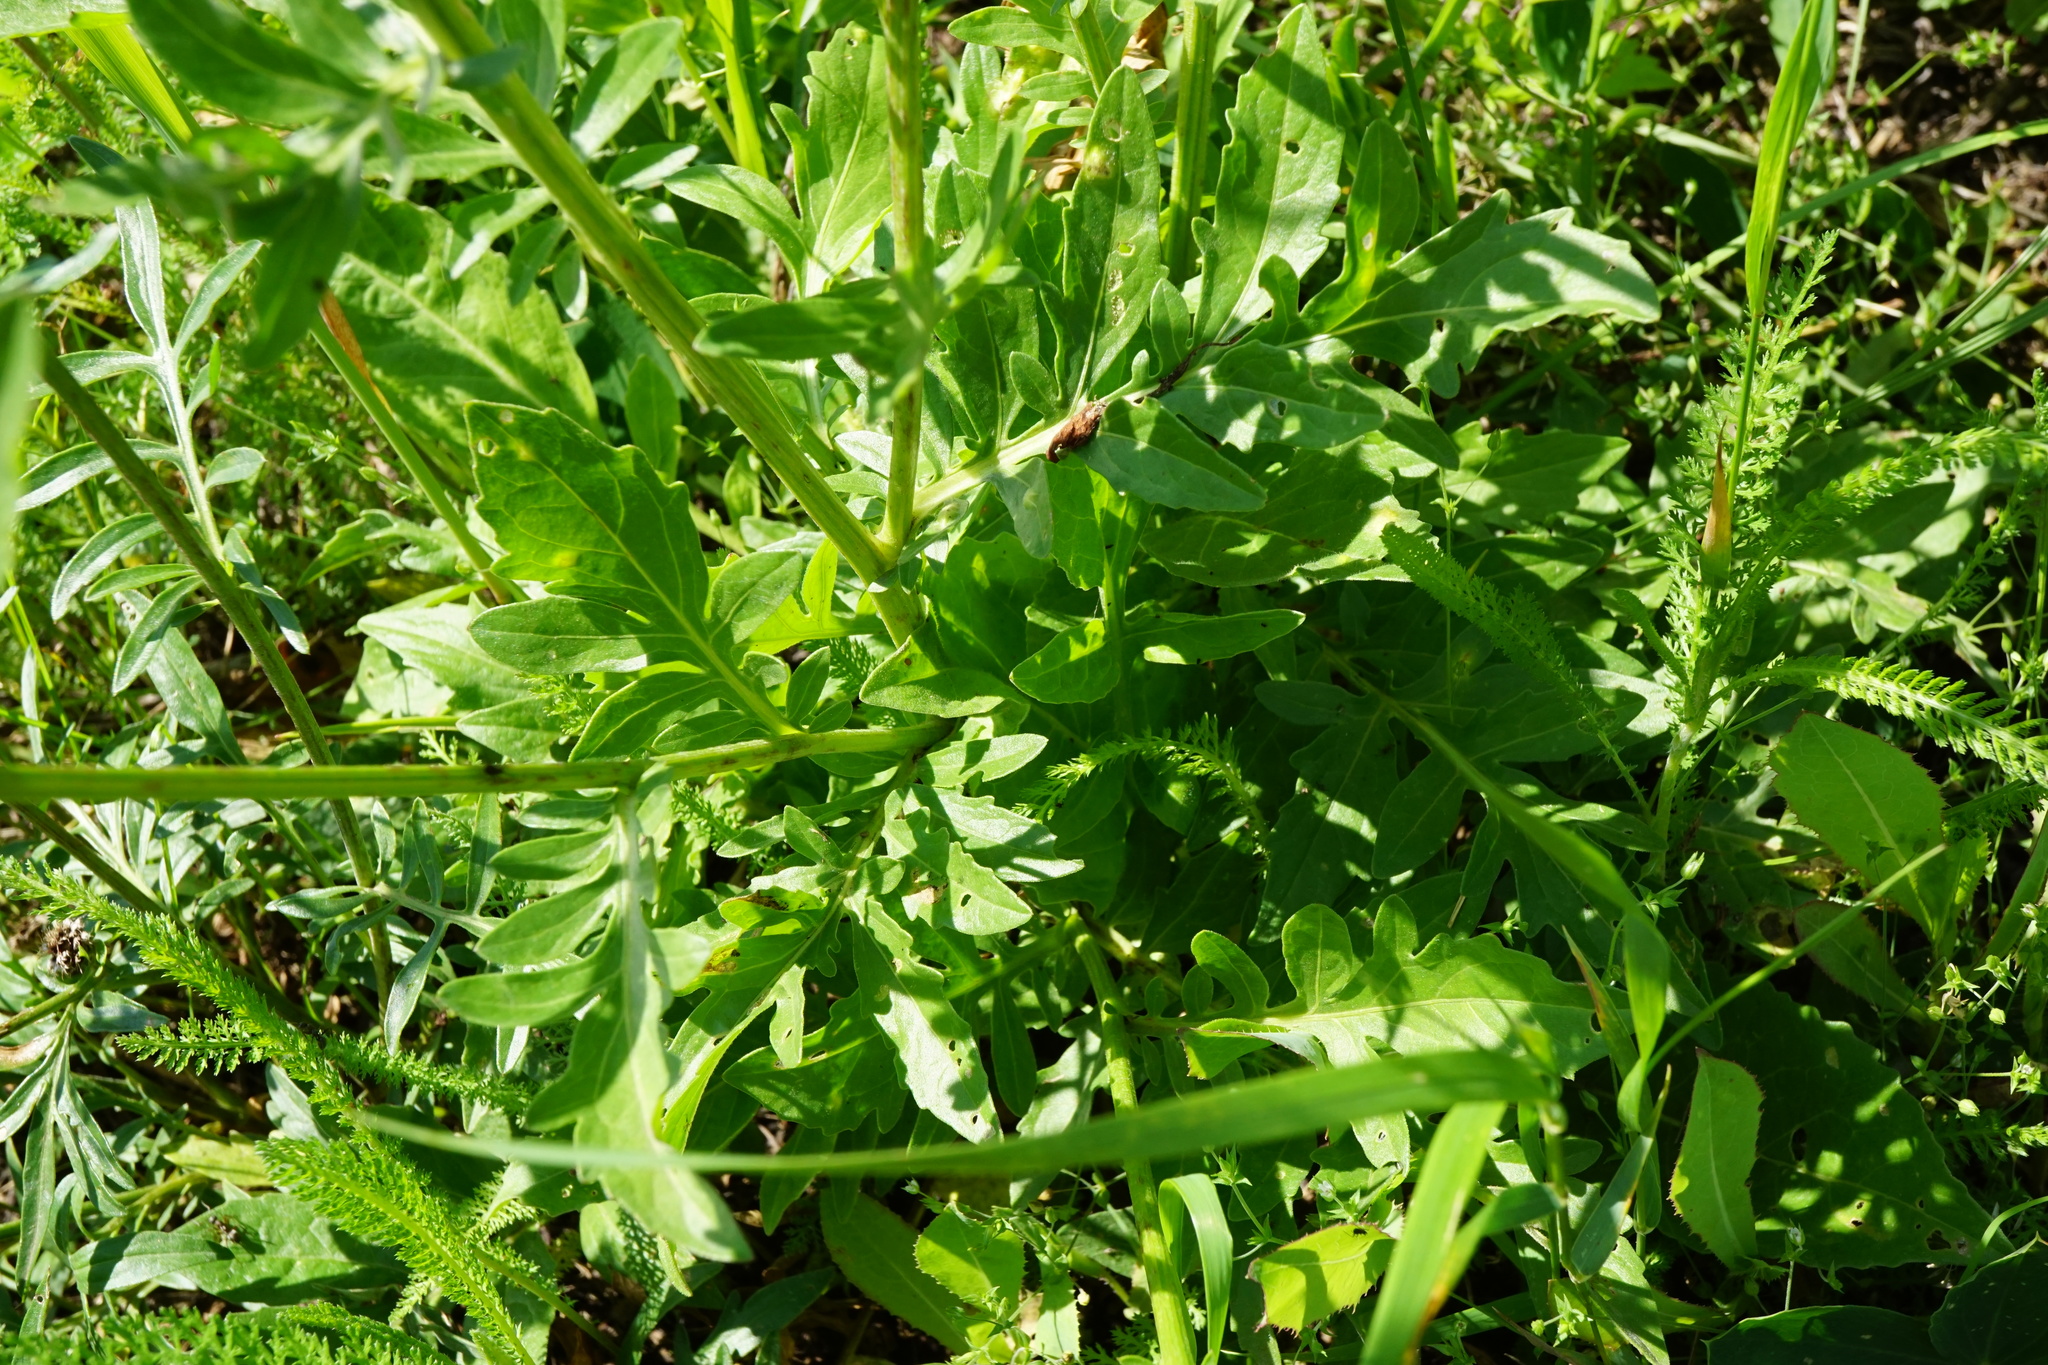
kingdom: Plantae
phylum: Tracheophyta
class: Magnoliopsida
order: Asterales
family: Asteraceae
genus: Centaurea
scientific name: Centaurea scabiosa
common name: Greater knapweed
